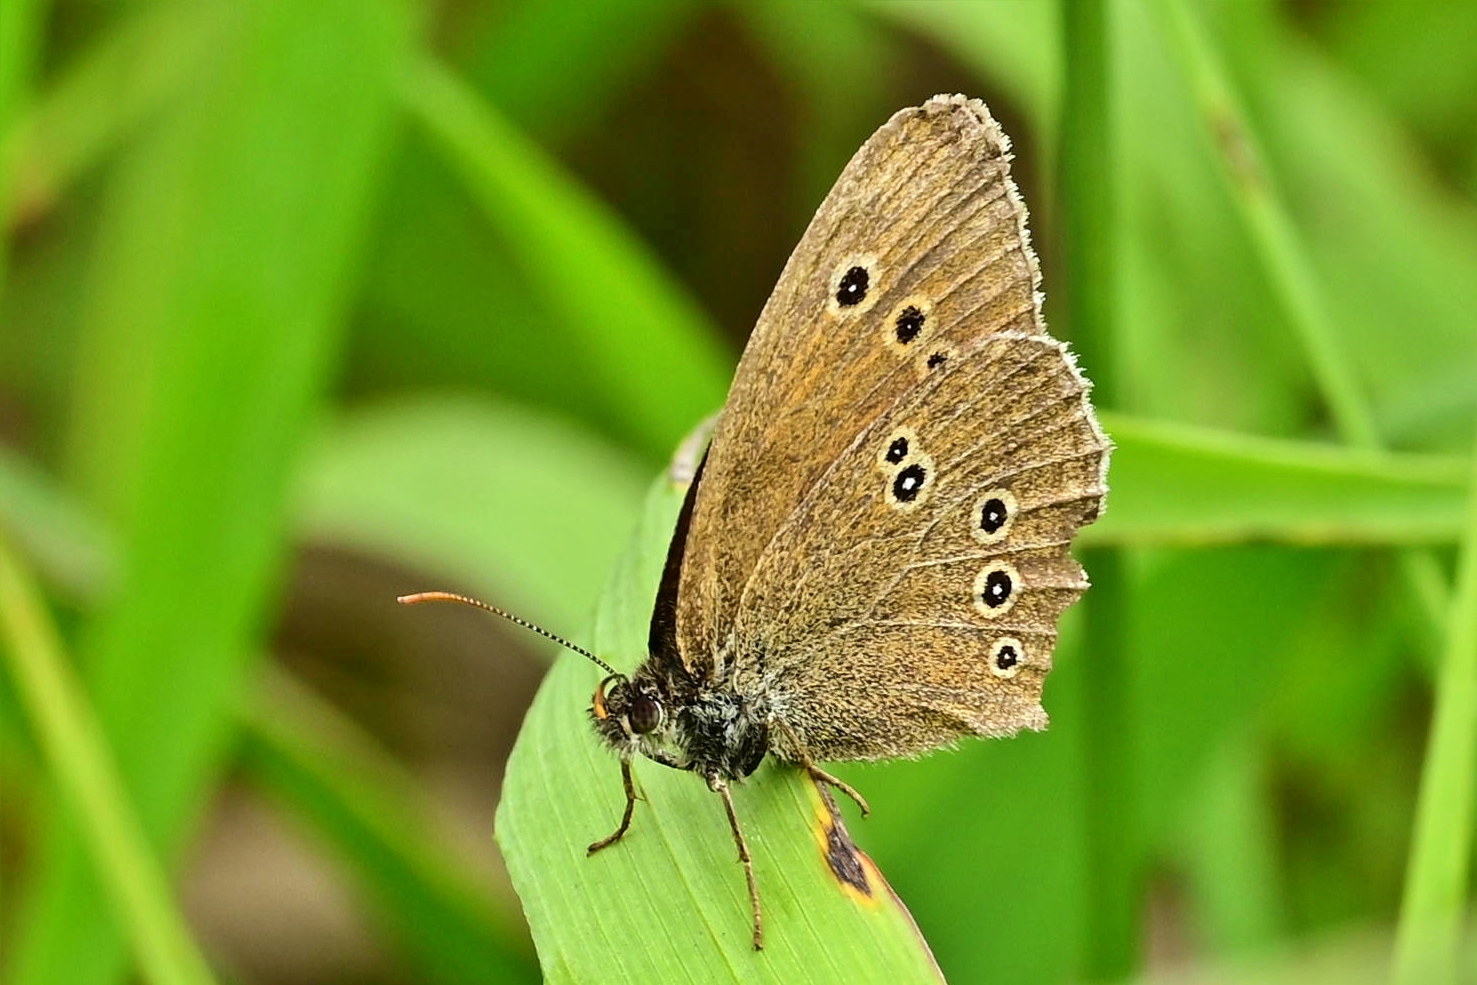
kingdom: Animalia
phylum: Arthropoda
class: Insecta
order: Lepidoptera
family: Nymphalidae
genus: Aphantopus
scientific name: Aphantopus hyperantus
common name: Ringlet
